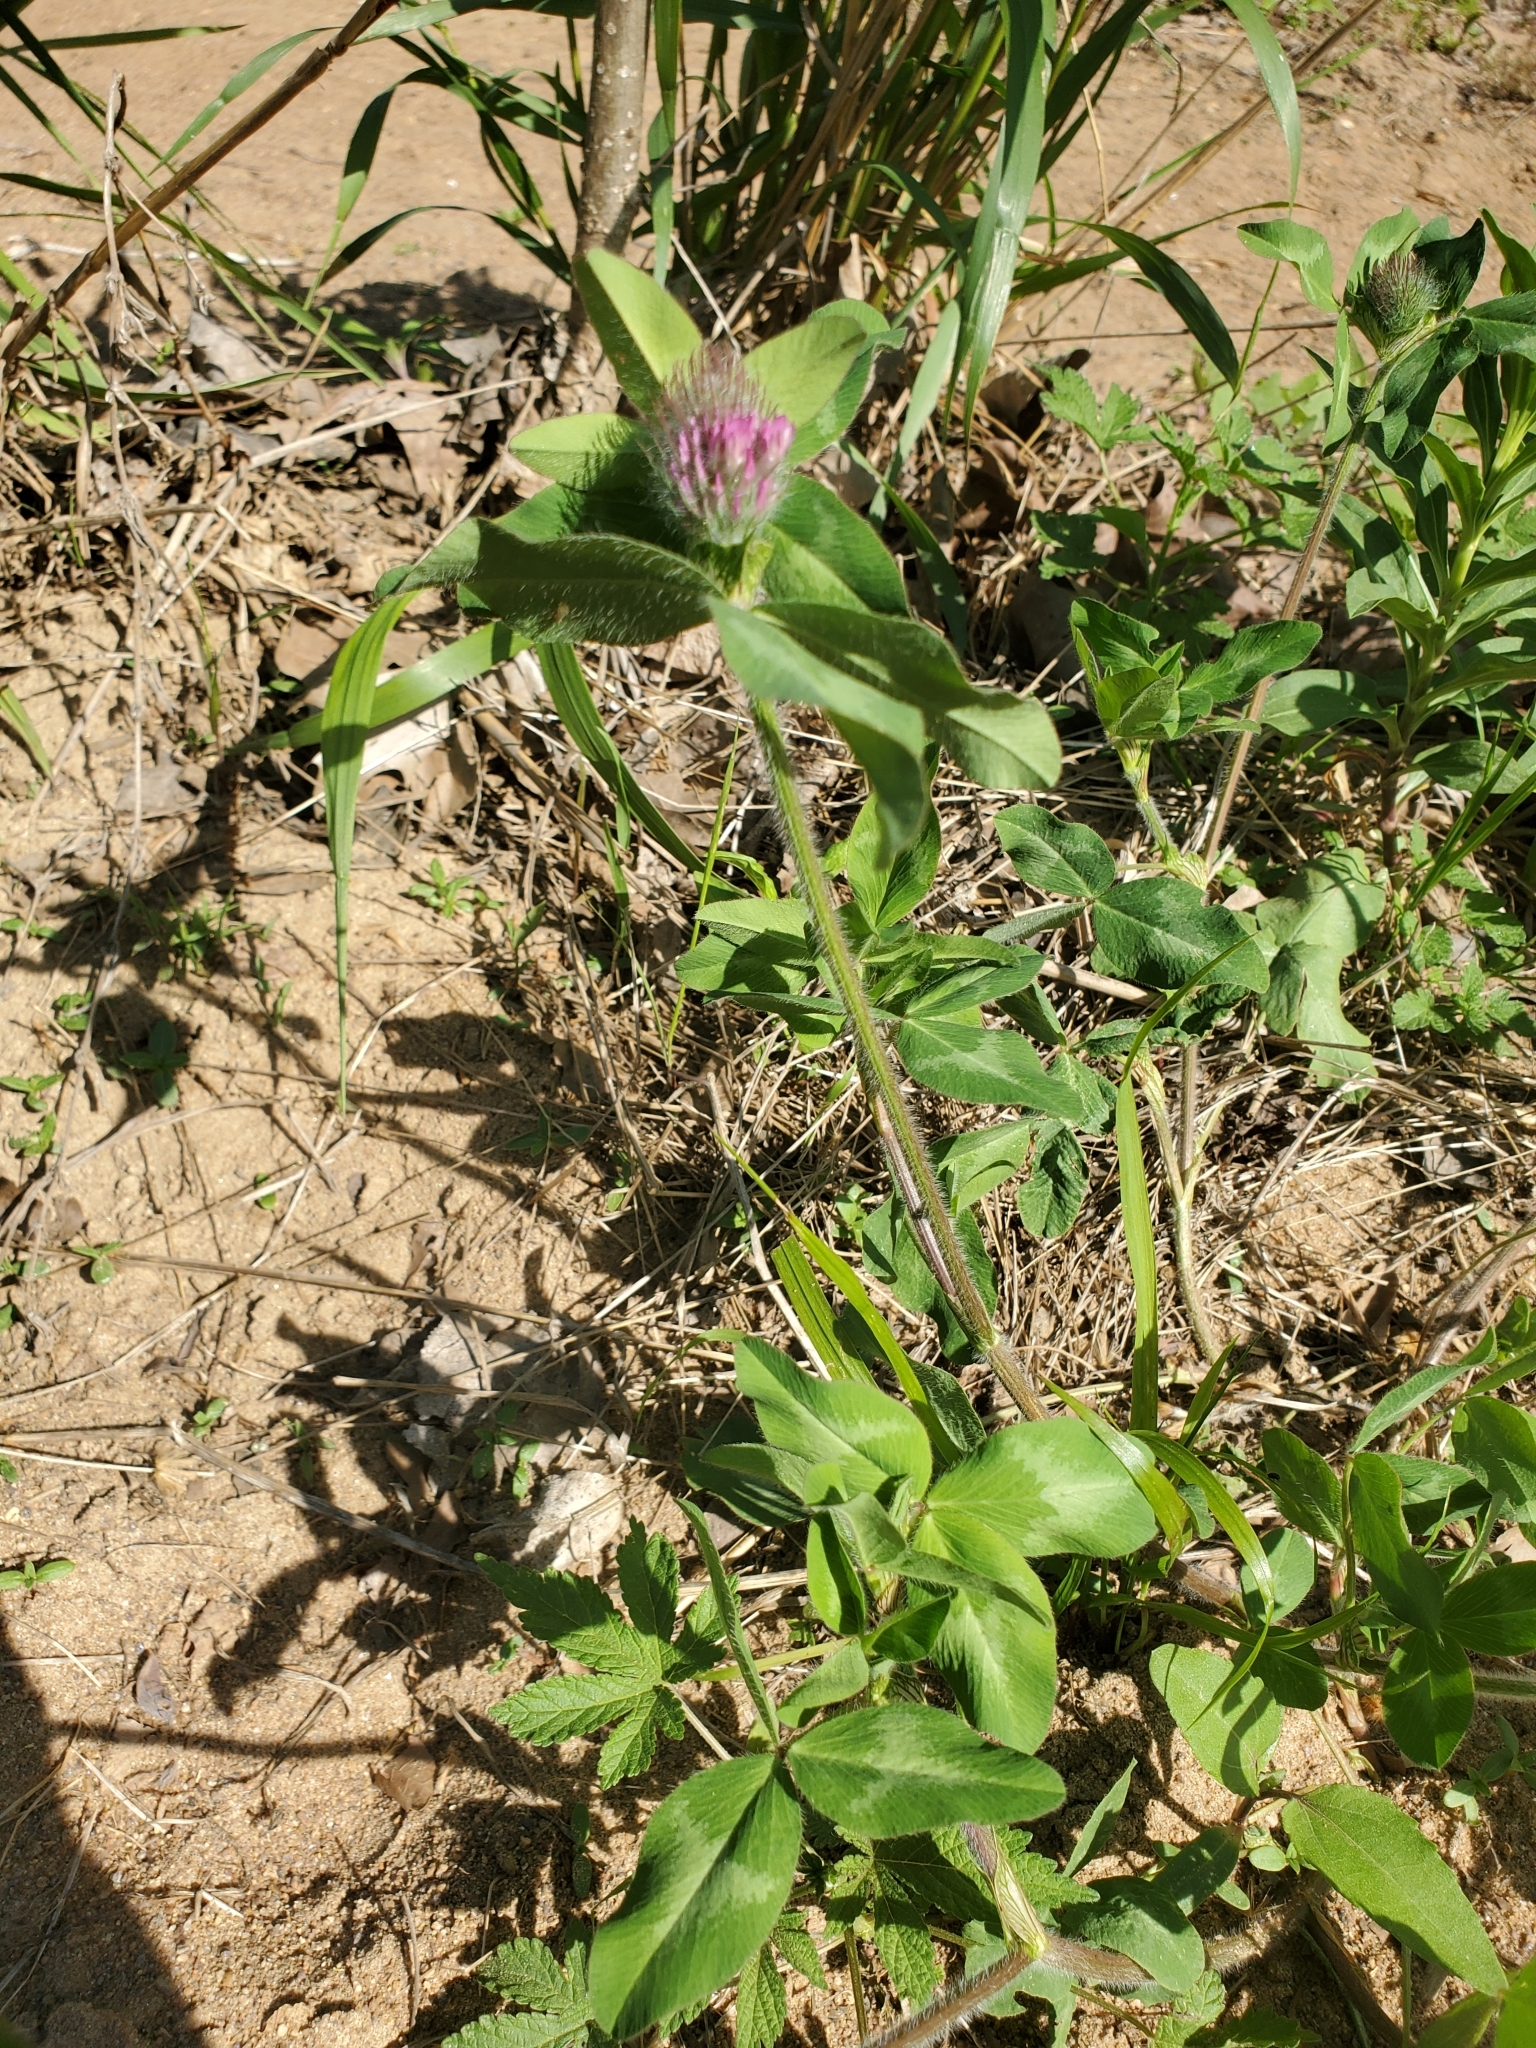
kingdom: Plantae
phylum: Tracheophyta
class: Magnoliopsida
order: Fabales
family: Fabaceae
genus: Trifolium
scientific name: Trifolium pratense
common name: Red clover
